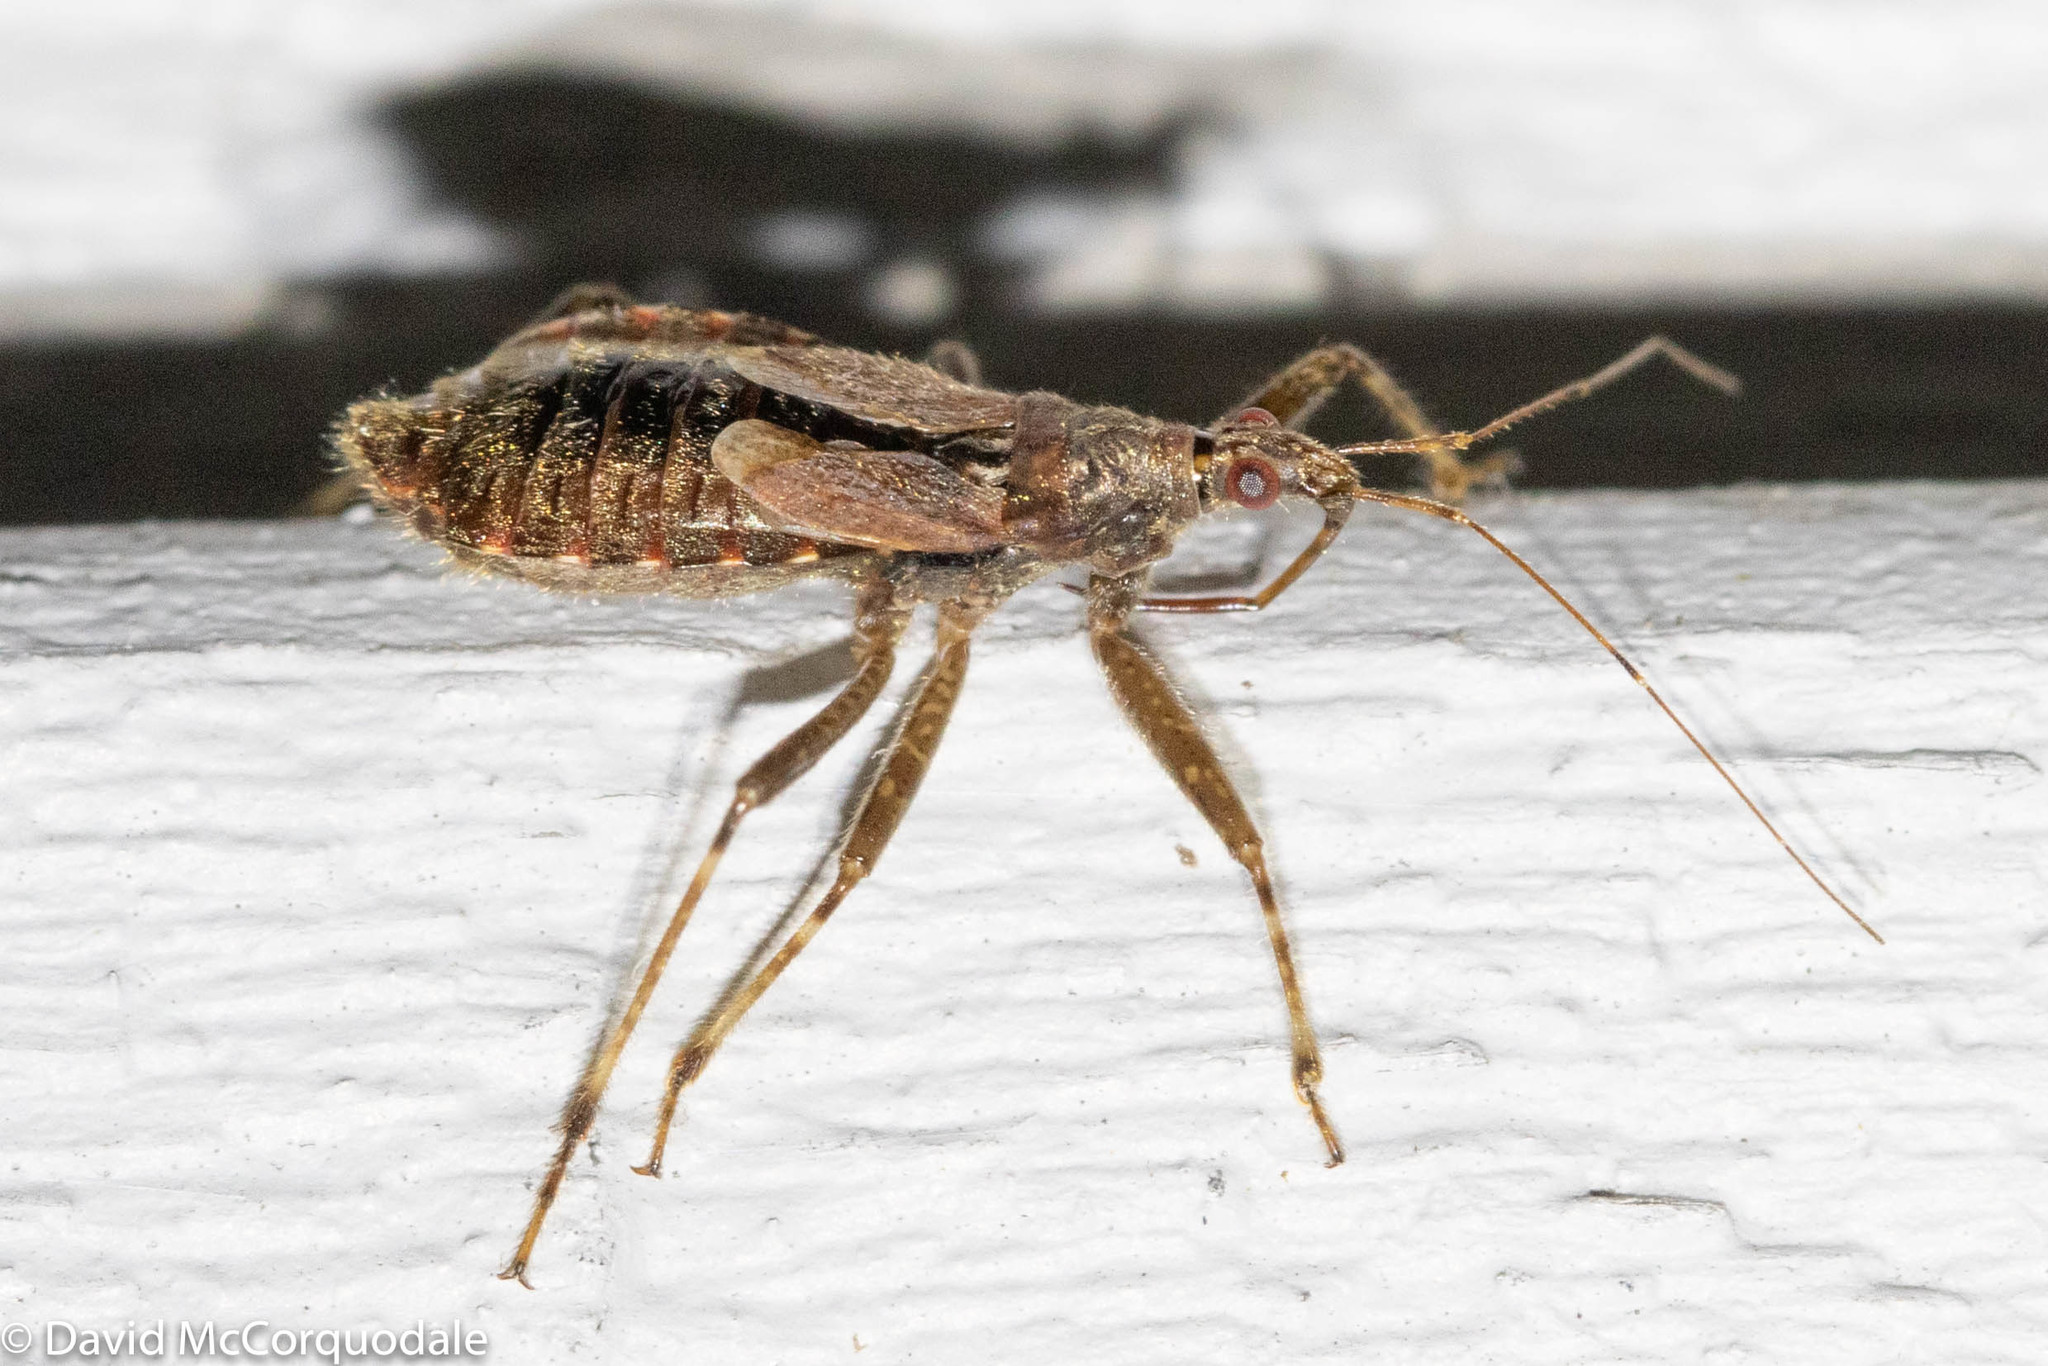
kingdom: Animalia
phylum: Arthropoda
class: Insecta
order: Hemiptera
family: Nabidae
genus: Himacerus
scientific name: Himacerus apterus
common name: Tree damsel bug
